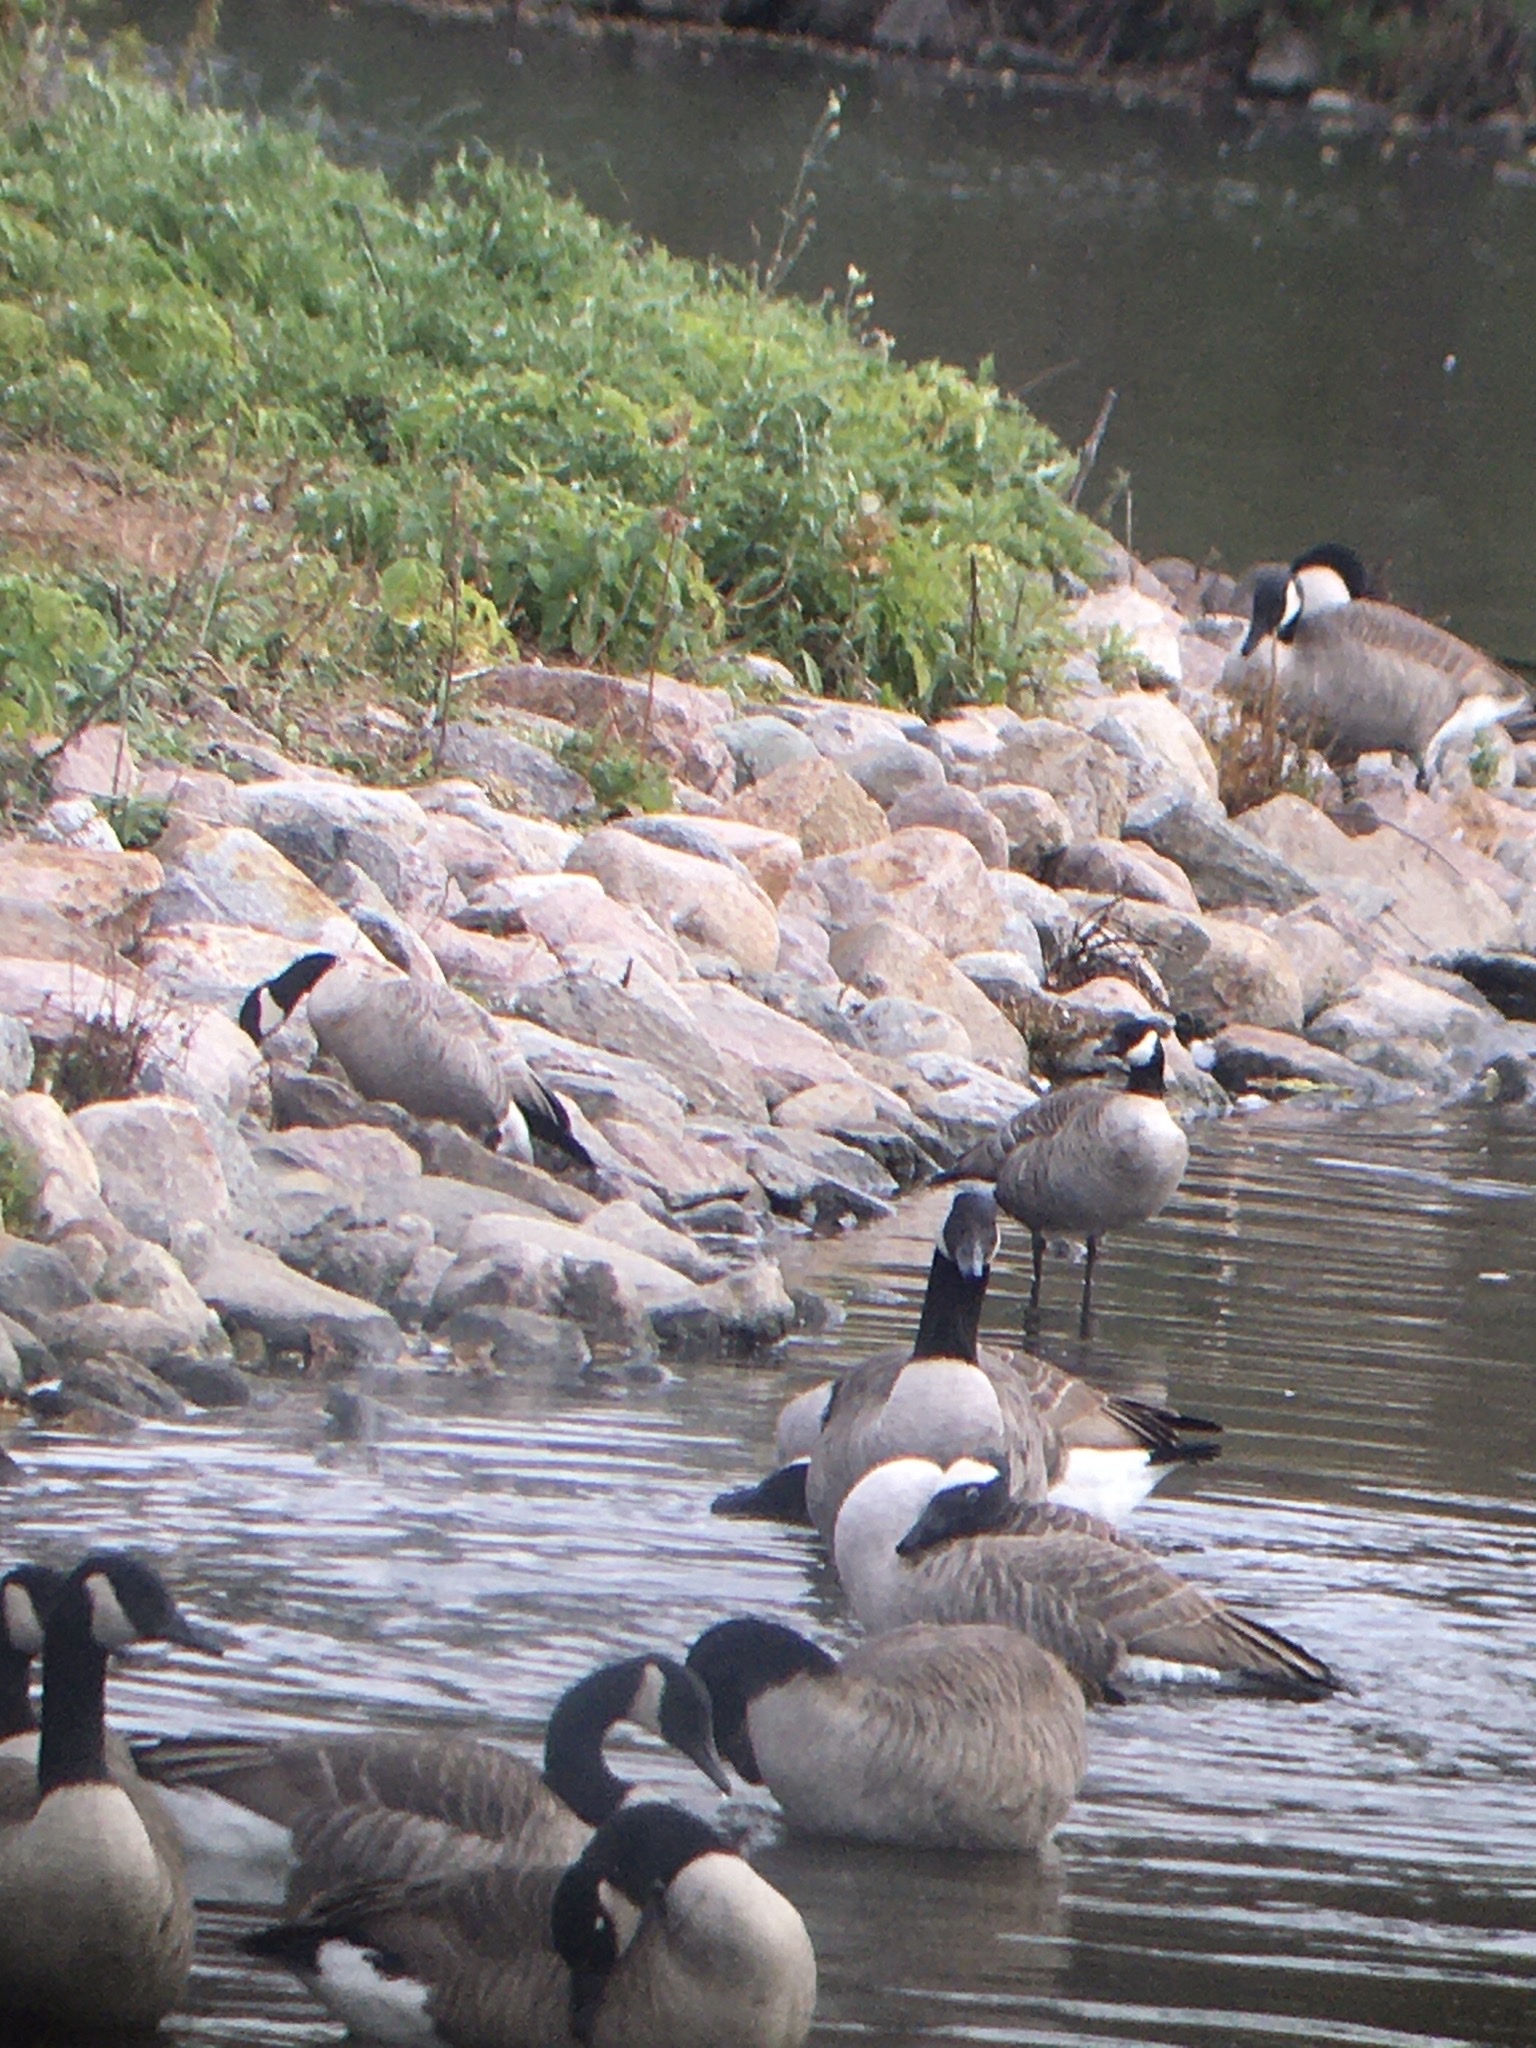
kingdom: Animalia
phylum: Chordata
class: Aves
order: Anseriformes
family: Anatidae
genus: Branta
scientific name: Branta hutchinsii
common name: Cackling goose
